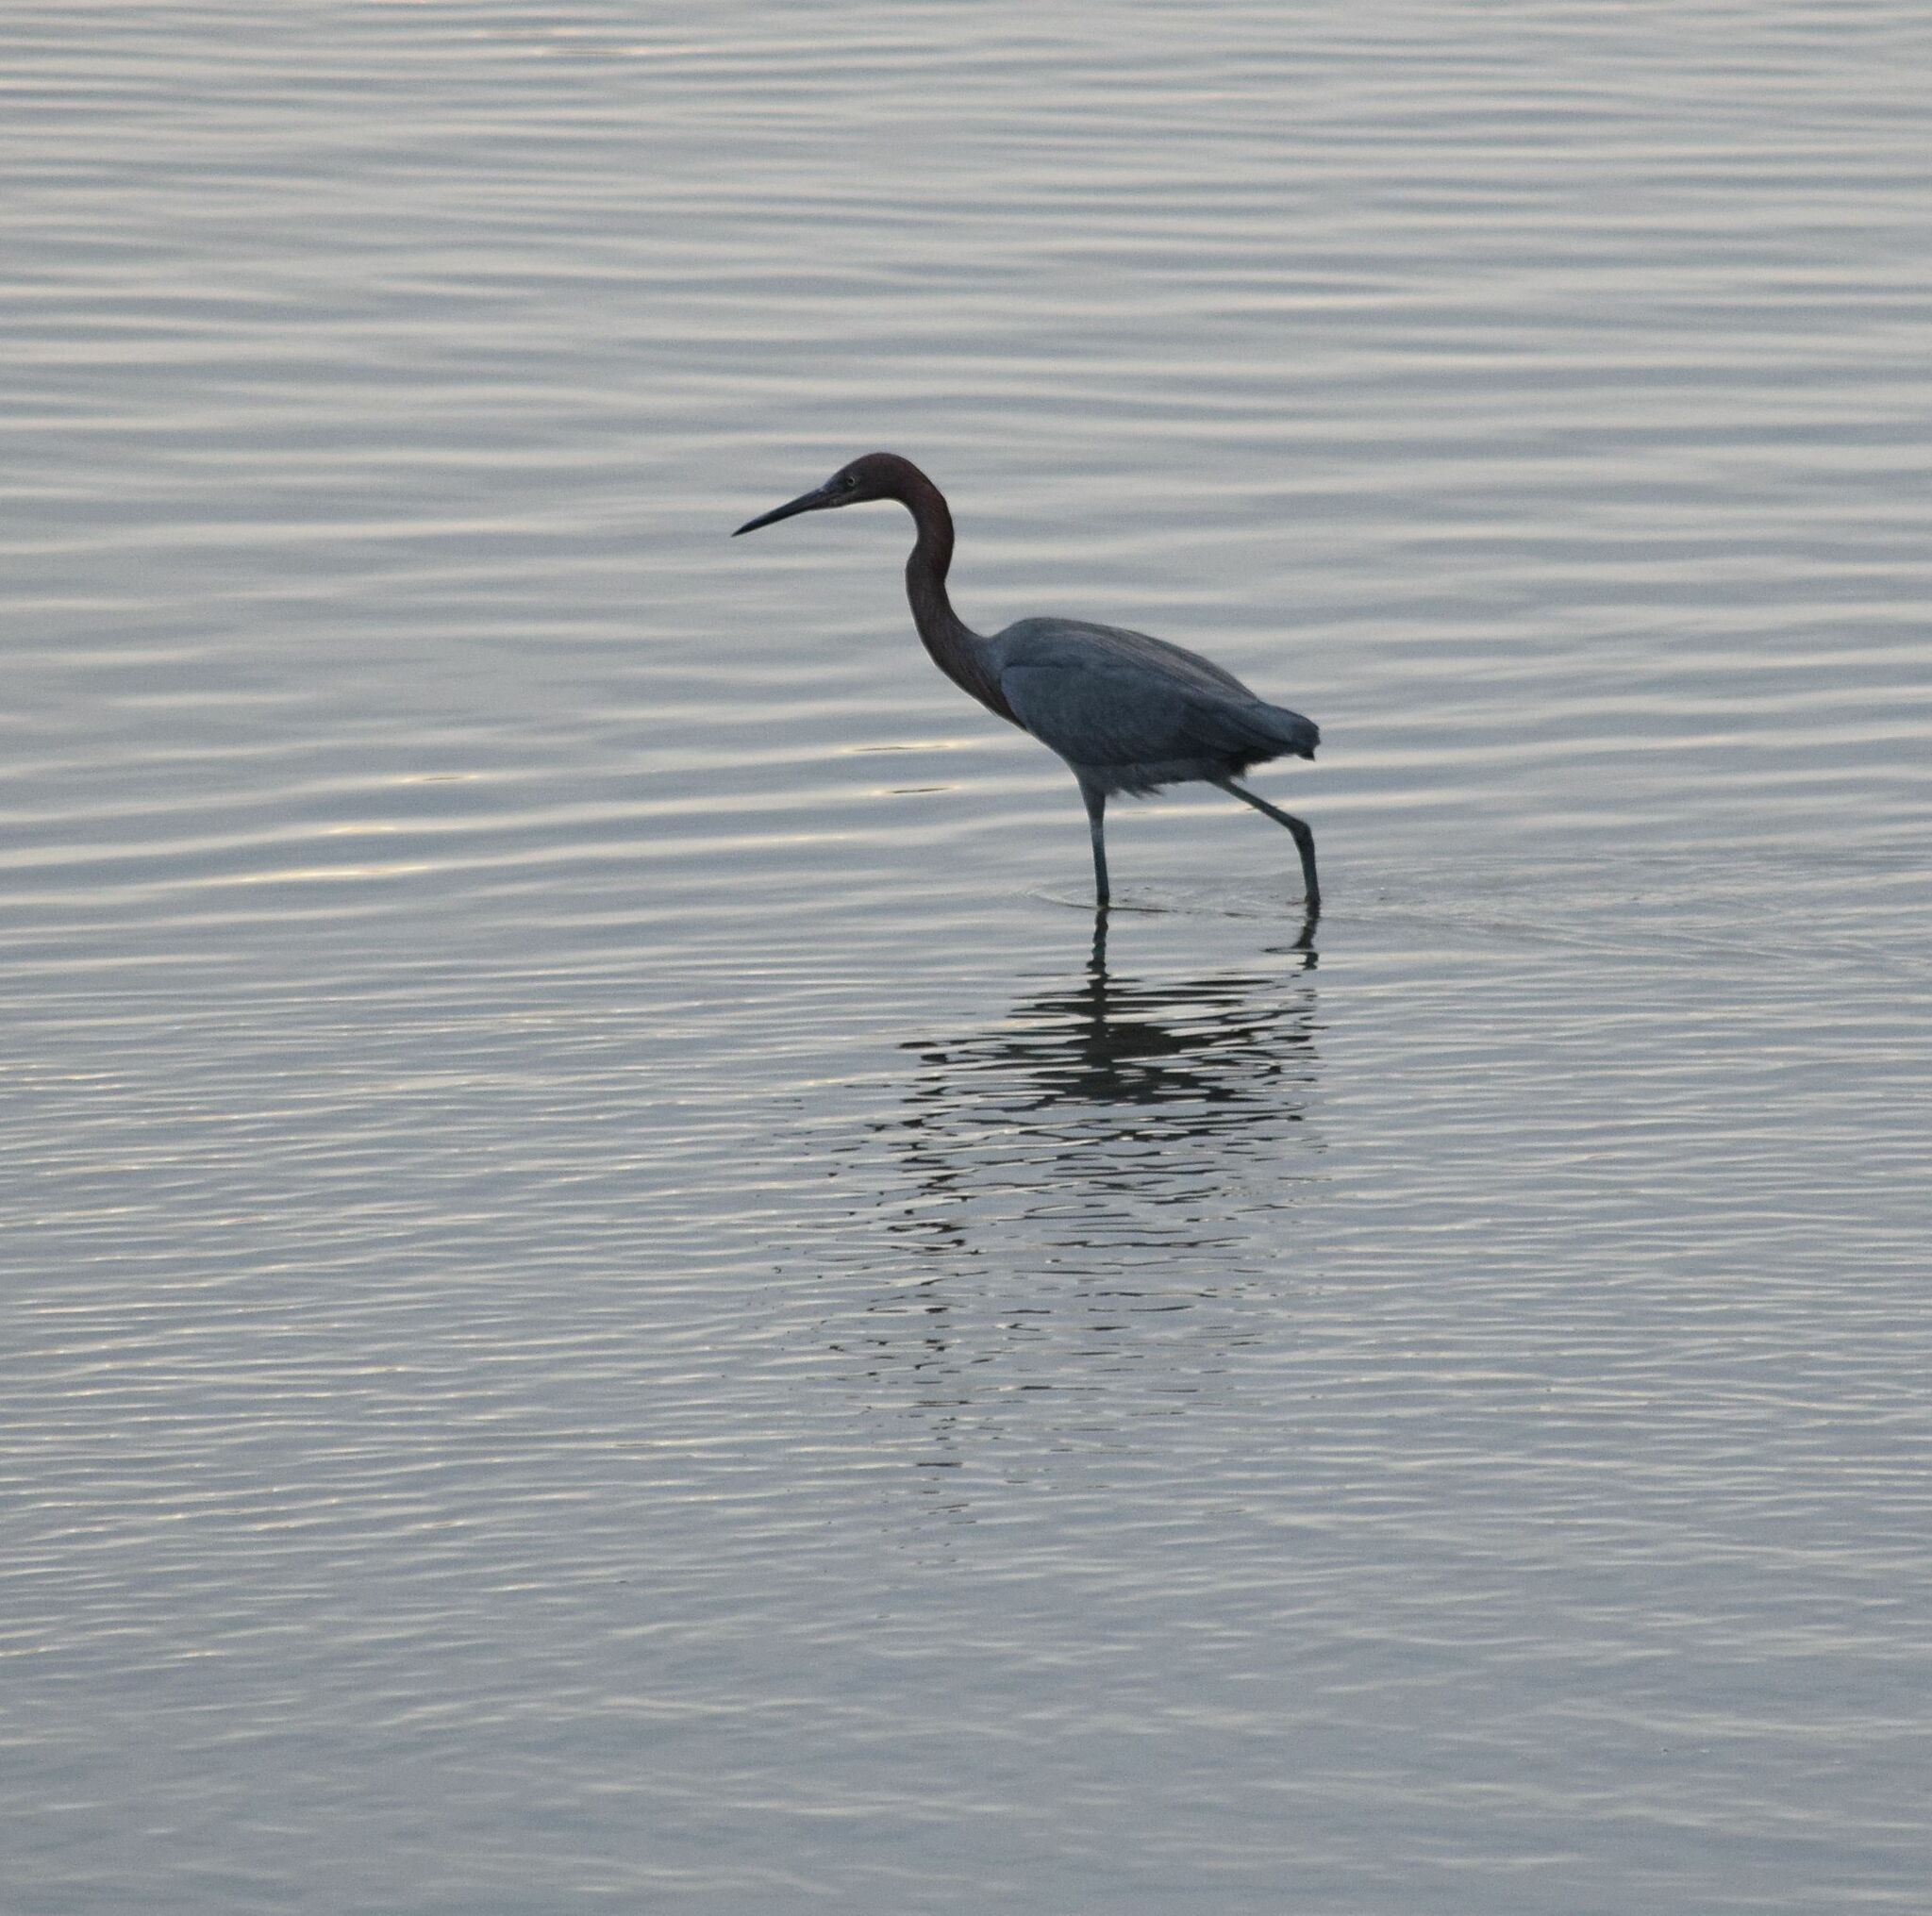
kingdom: Animalia
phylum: Chordata
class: Aves
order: Pelecaniformes
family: Ardeidae
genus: Egretta
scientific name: Egretta rufescens
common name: Reddish egret
